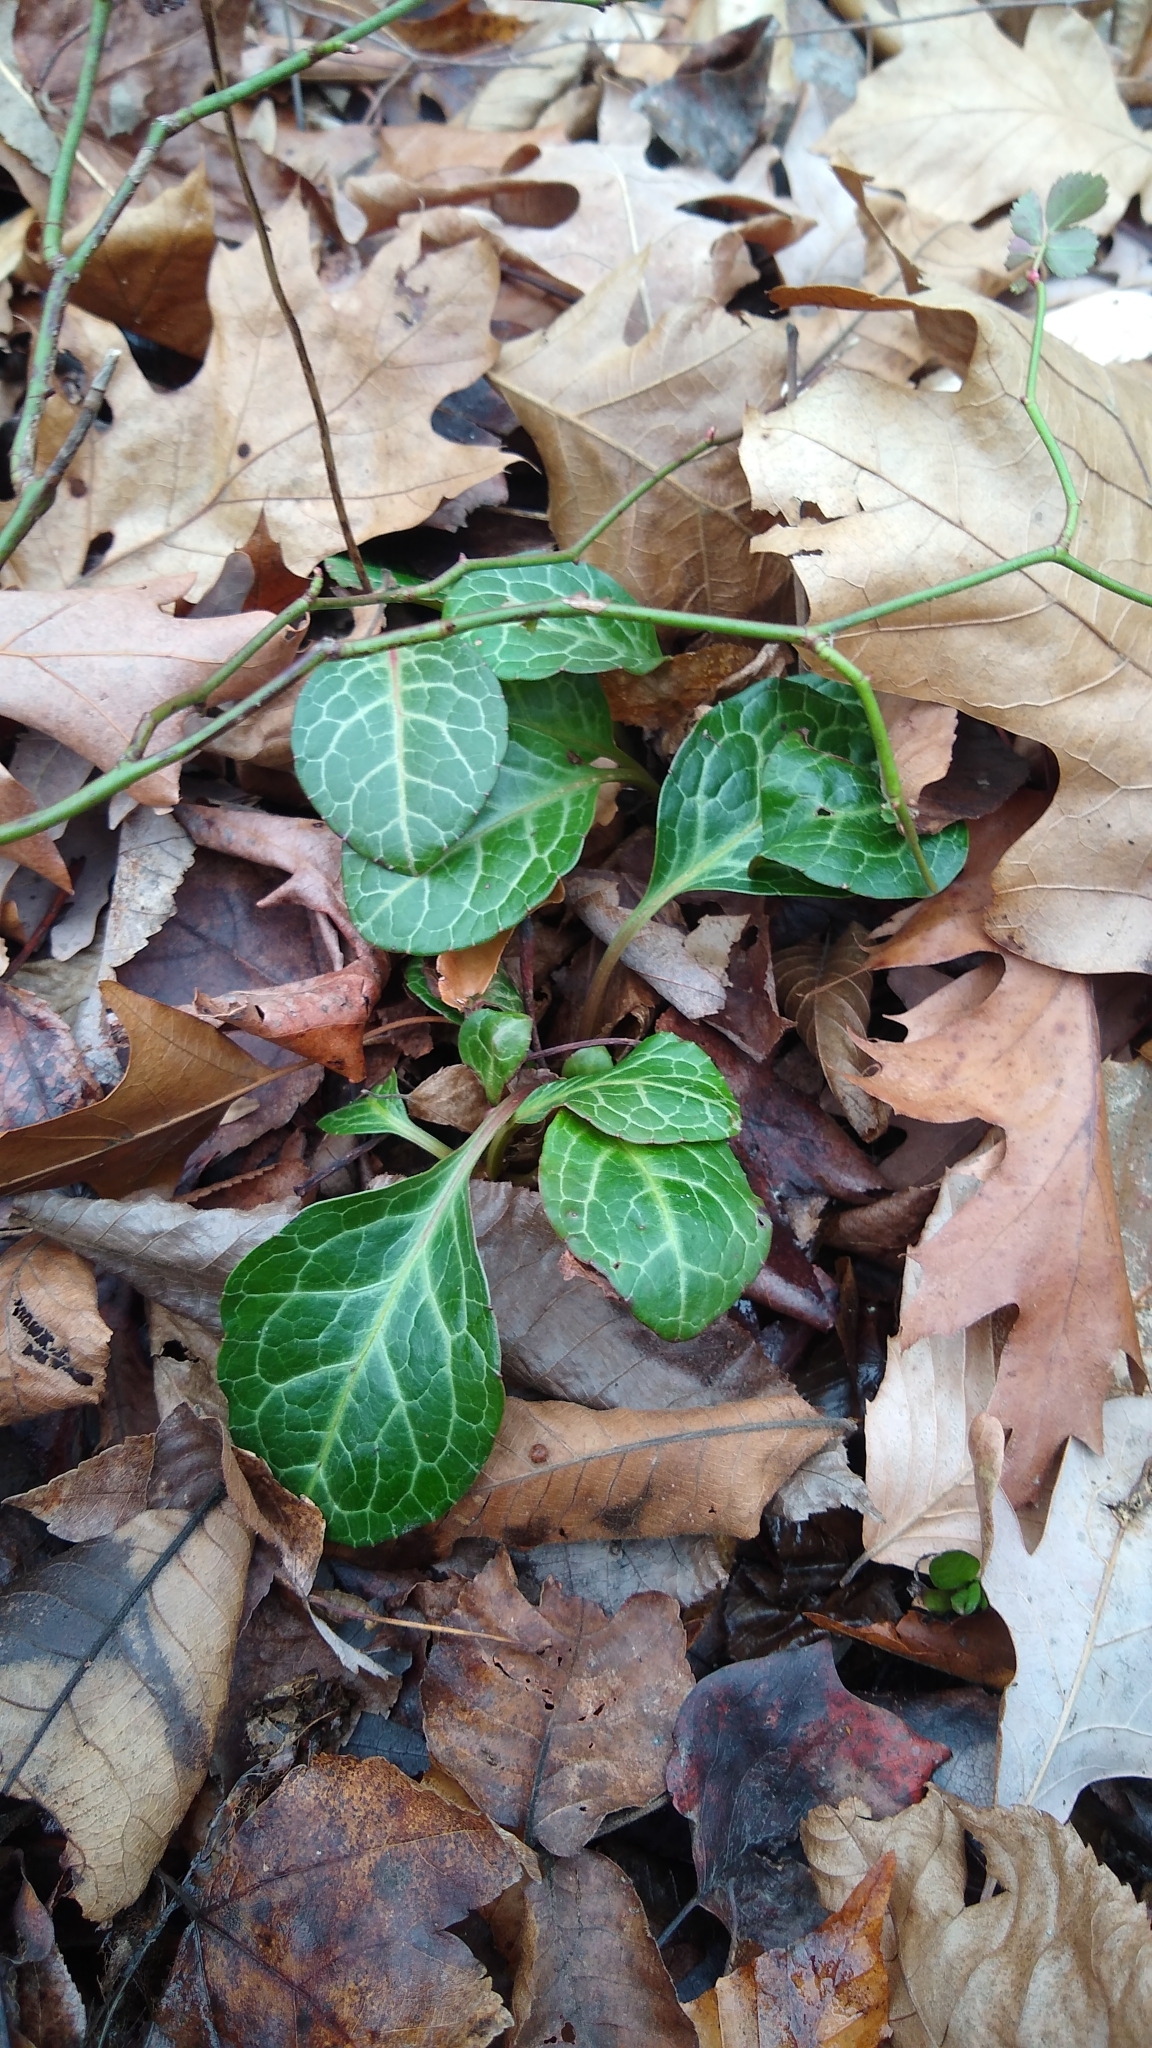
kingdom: Plantae
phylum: Tracheophyta
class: Magnoliopsida
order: Ericales
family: Ericaceae
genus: Pyrola
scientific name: Pyrola americana
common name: American wintergreen
